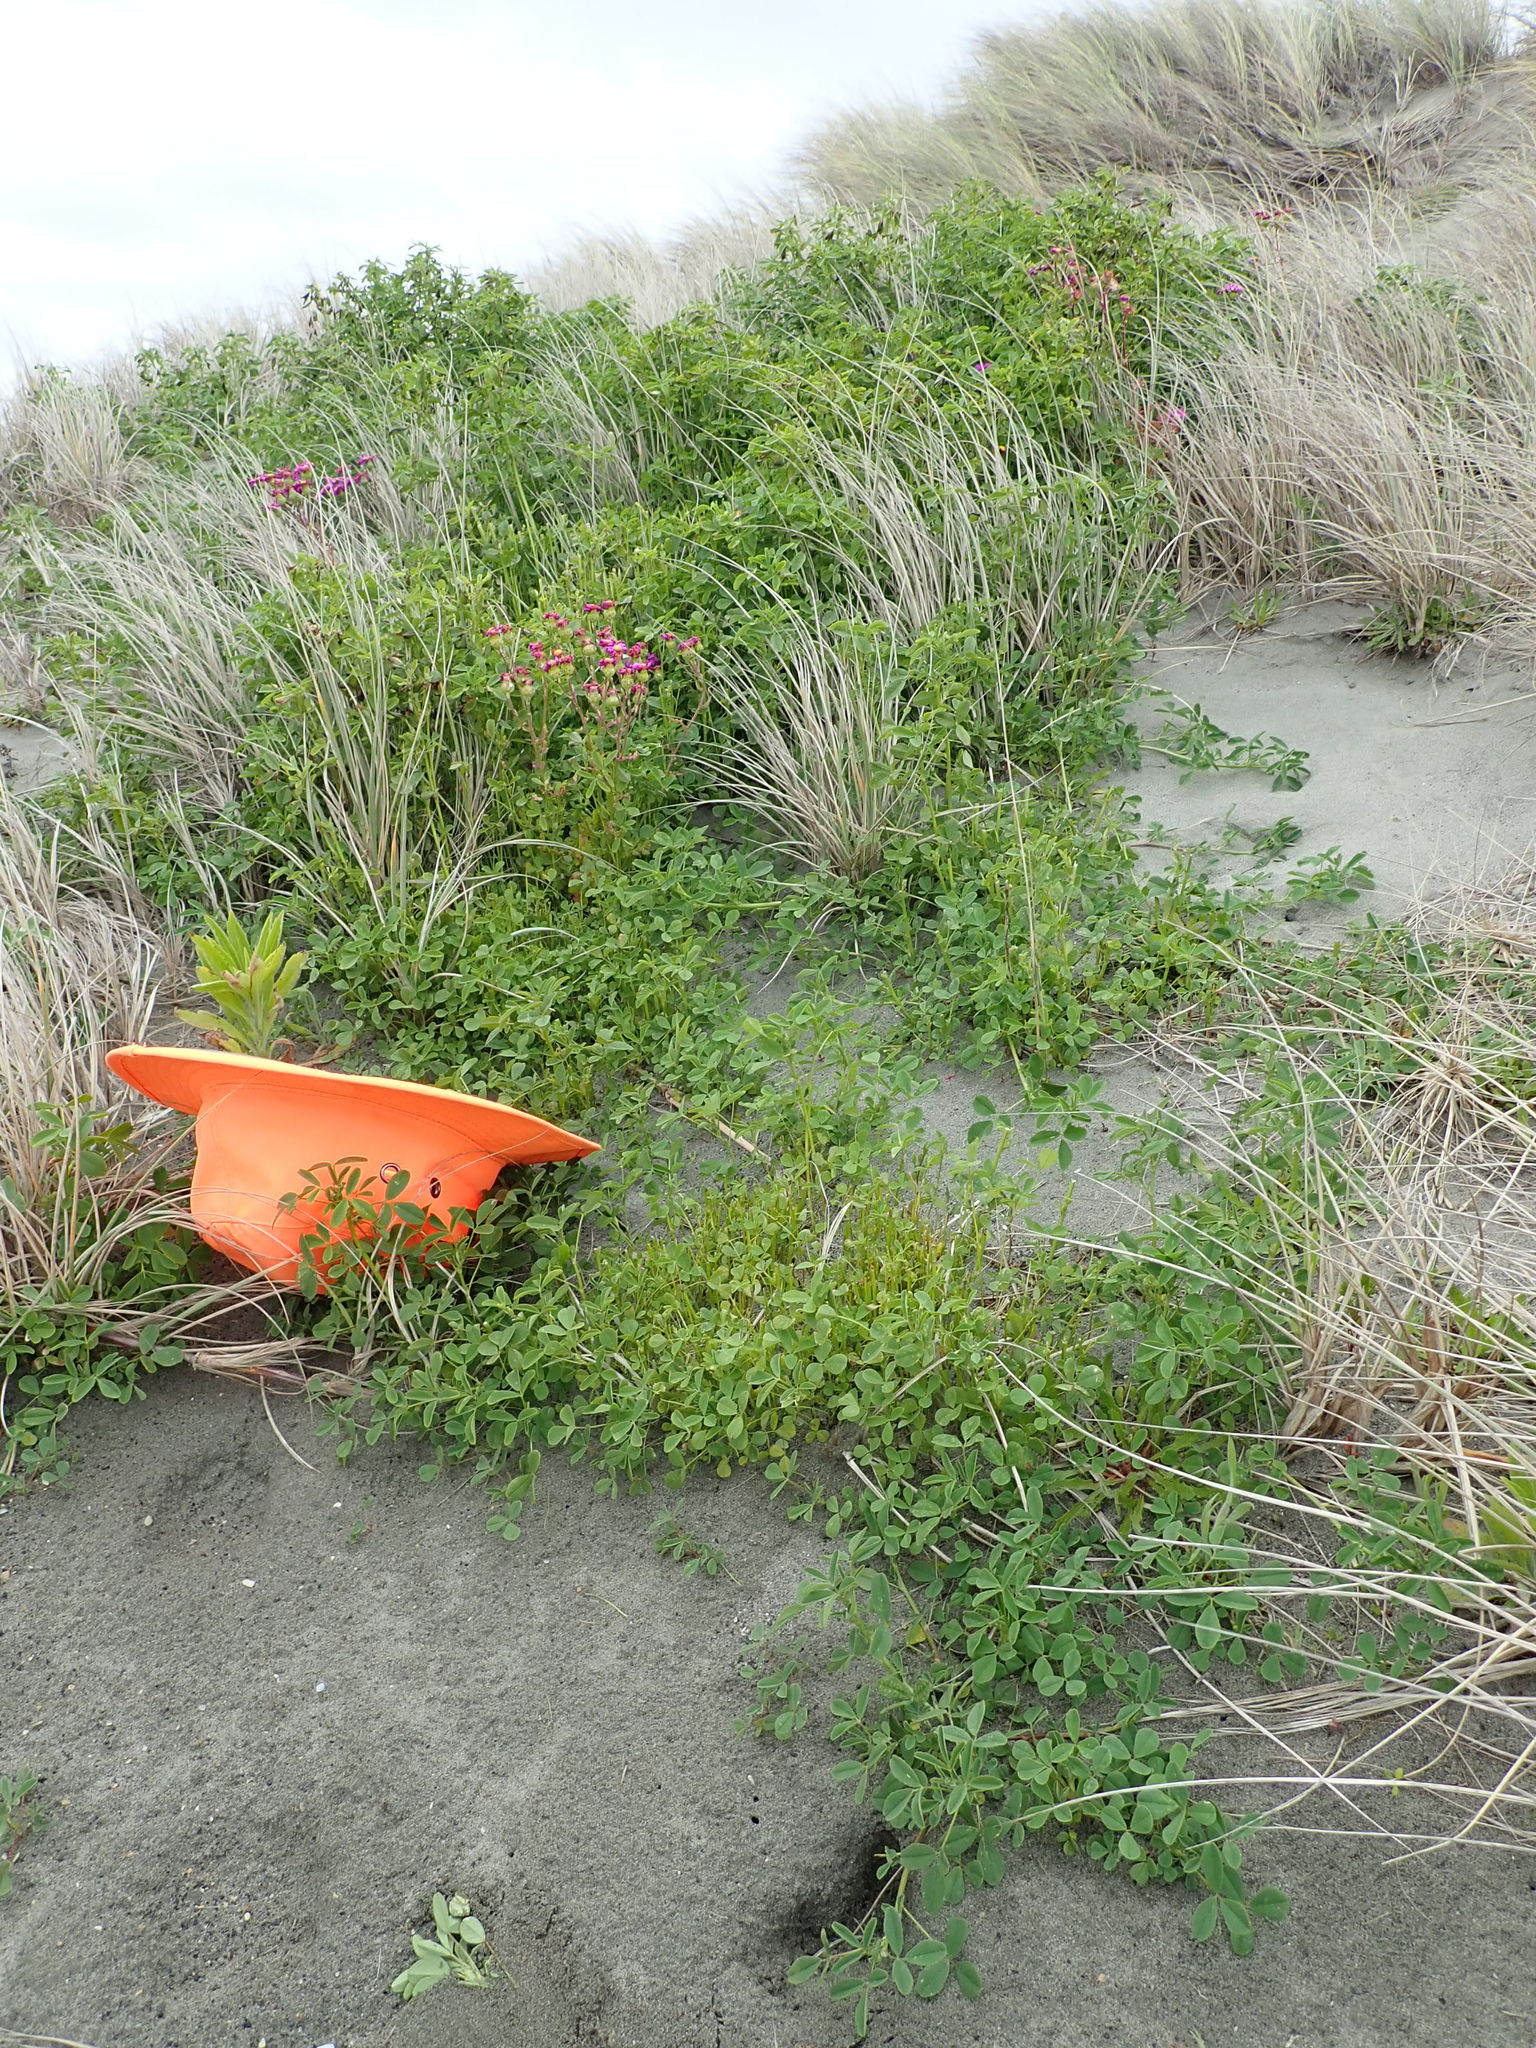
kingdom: Plantae
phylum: Tracheophyta
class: Magnoliopsida
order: Fabales
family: Fabaceae
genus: Melilotus
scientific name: Melilotus indicus
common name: Small melilot
